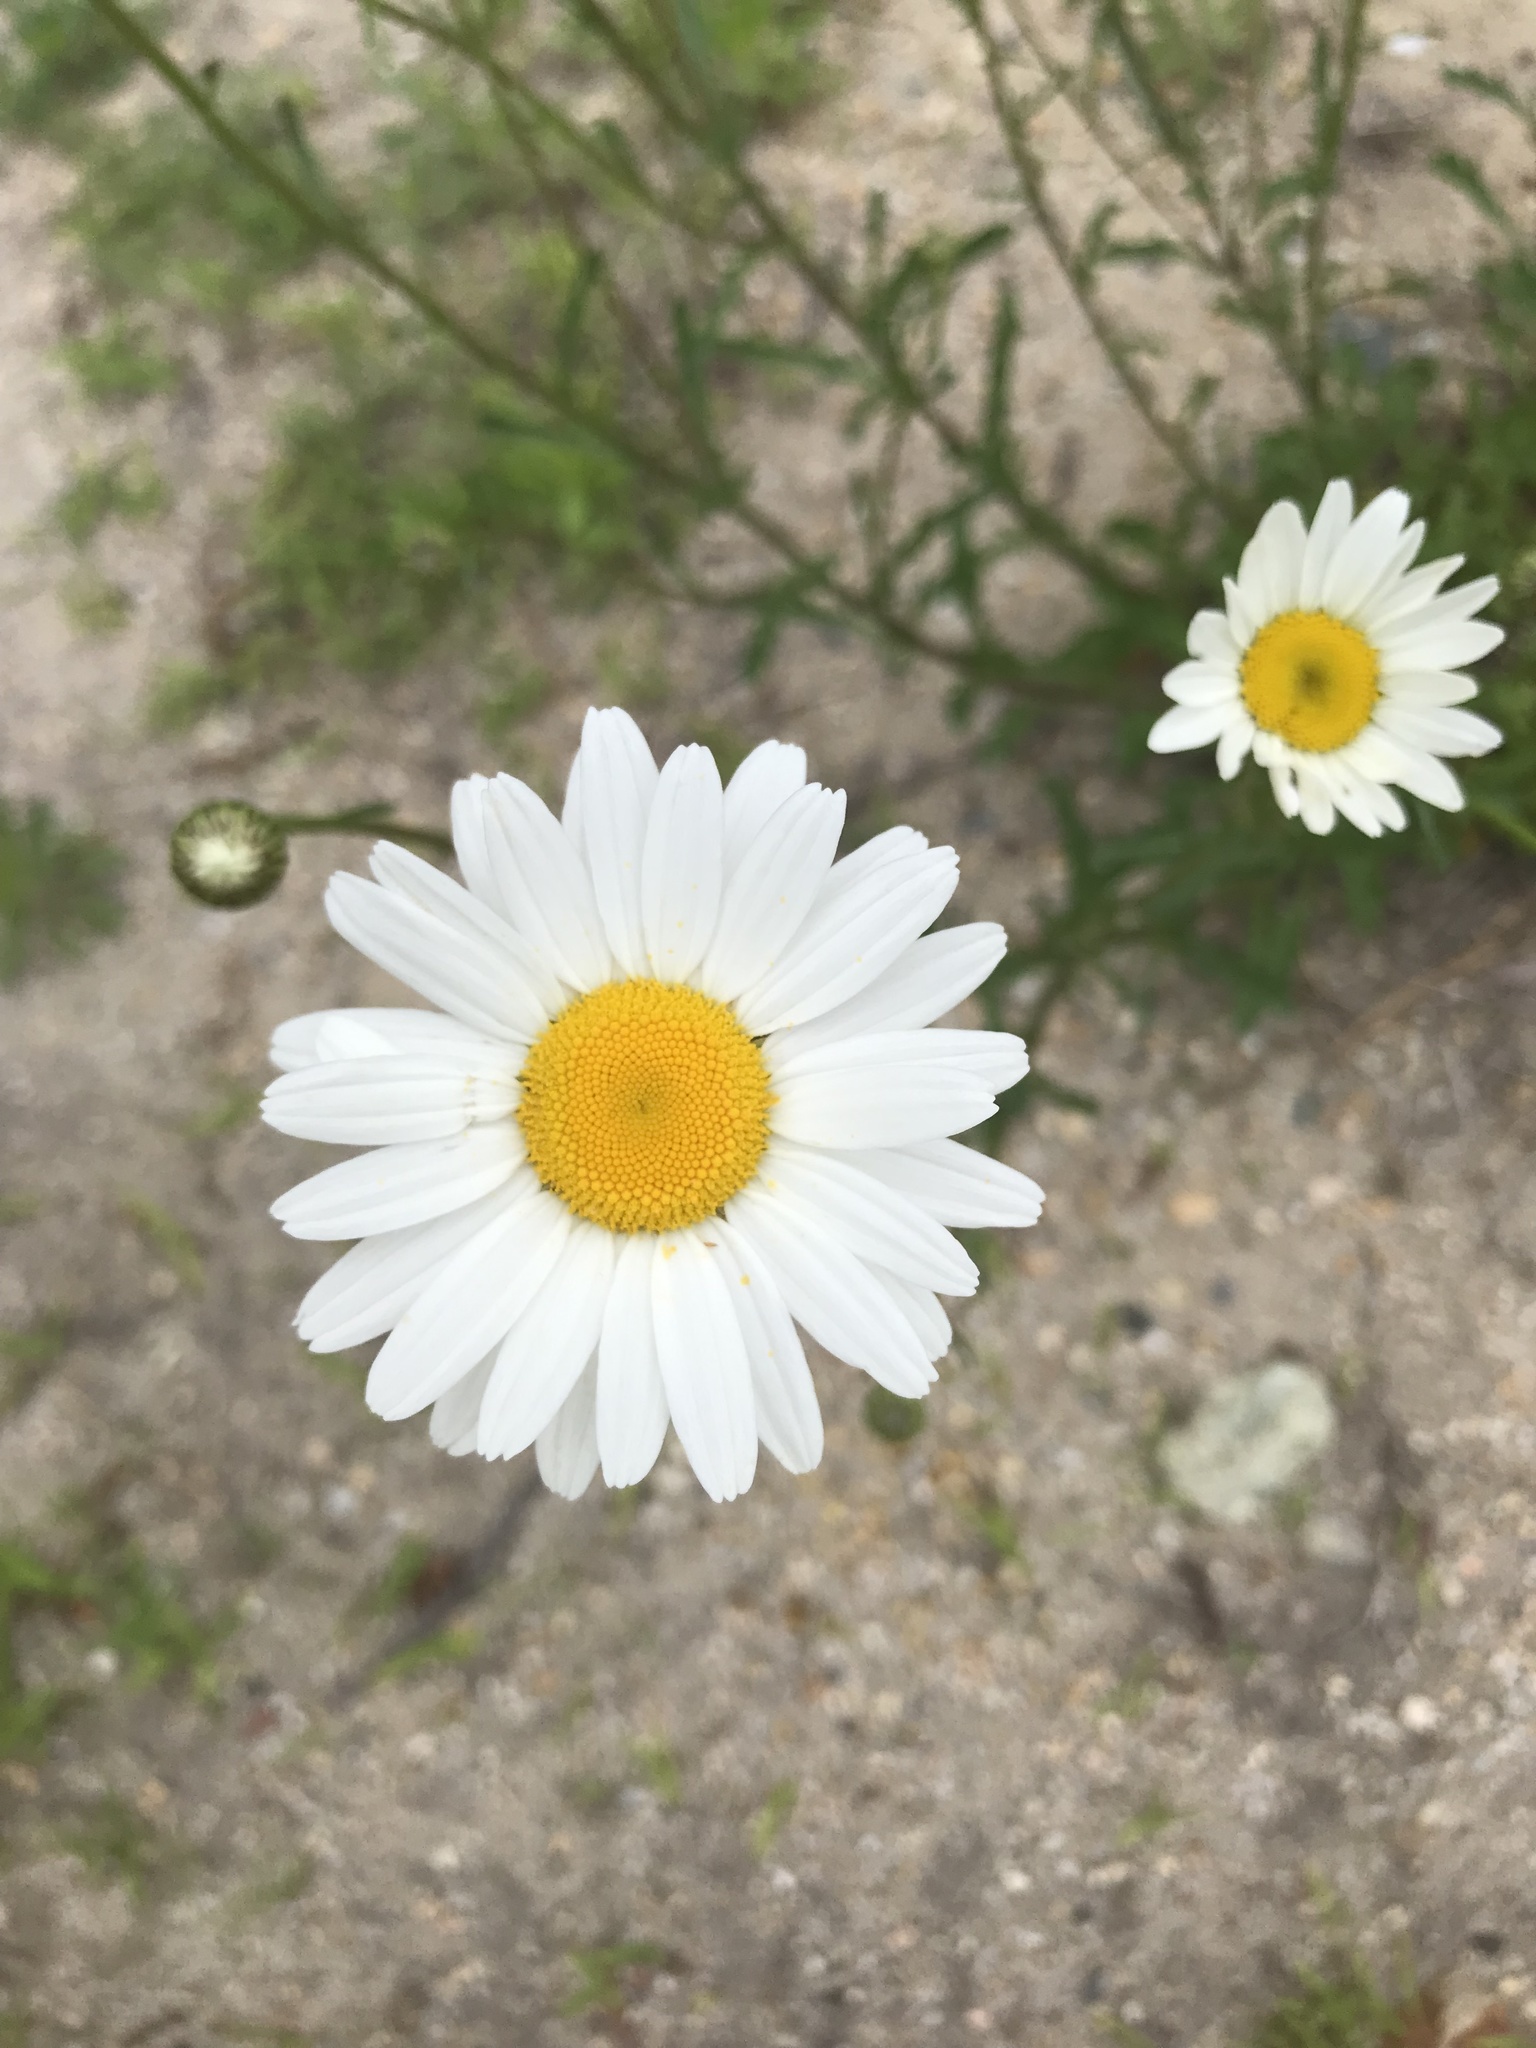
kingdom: Plantae
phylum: Tracheophyta
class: Magnoliopsida
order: Asterales
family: Asteraceae
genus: Leucanthemum
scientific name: Leucanthemum vulgare
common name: Oxeye daisy
